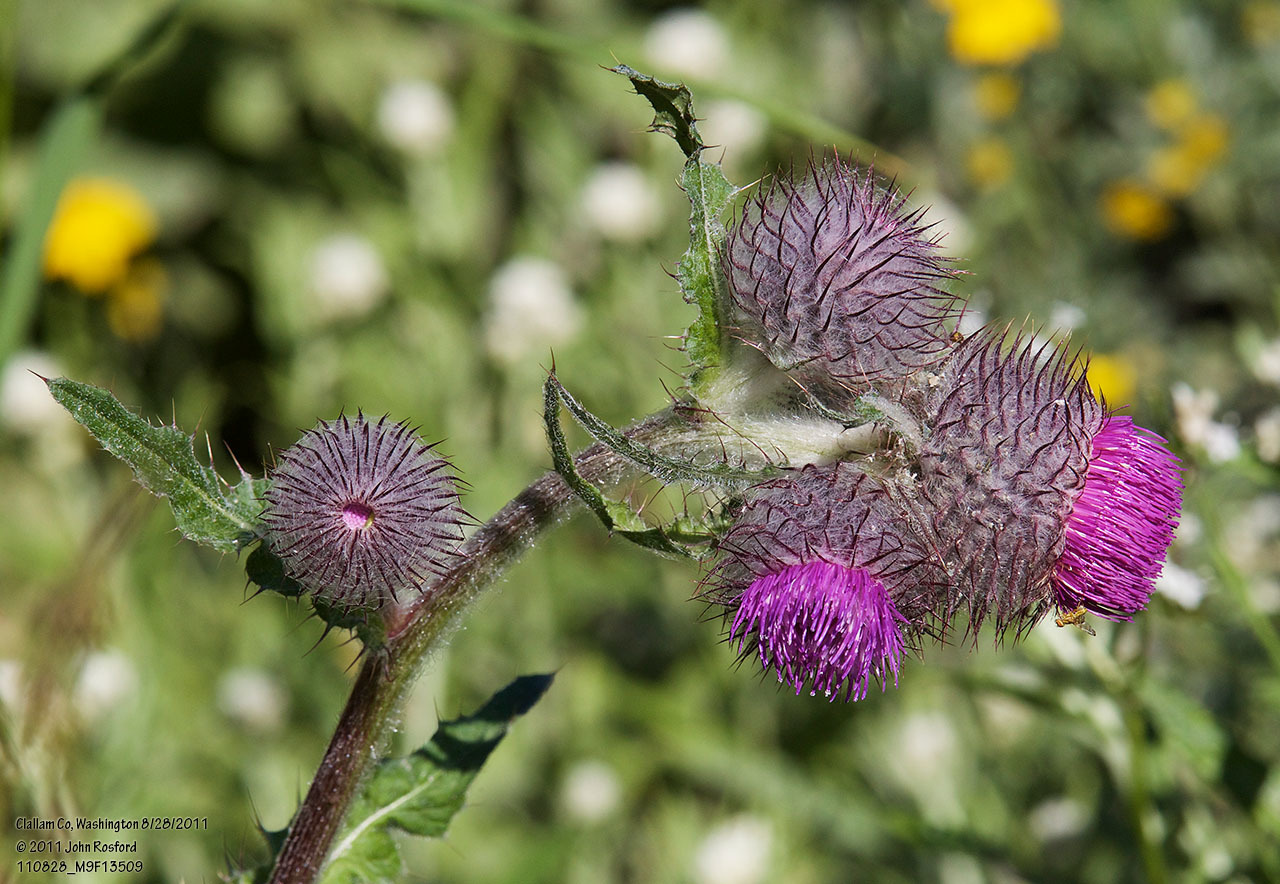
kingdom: Plantae
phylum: Tracheophyta
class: Magnoliopsida
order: Asterales
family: Asteraceae
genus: Cirsium
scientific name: Cirsium edule
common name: Indian thistle
